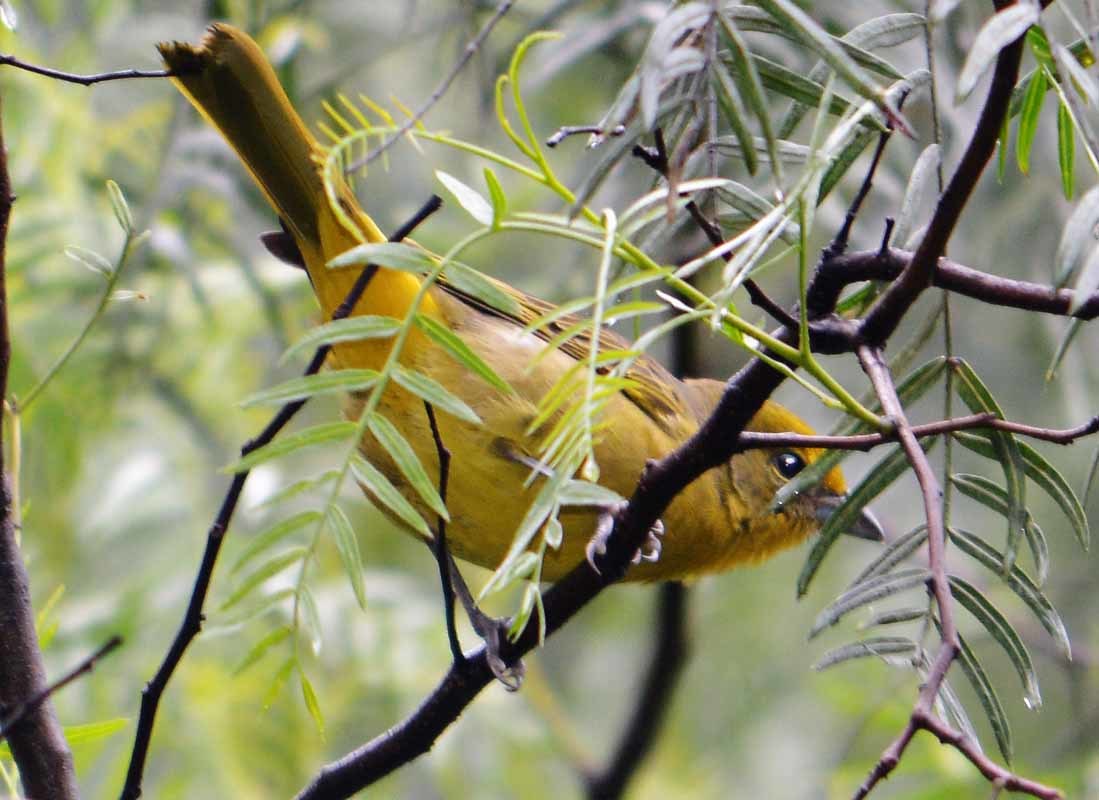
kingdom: Animalia
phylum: Chordata
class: Aves
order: Passeriformes
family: Cardinalidae
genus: Piranga
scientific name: Piranga flava
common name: Red tanager
